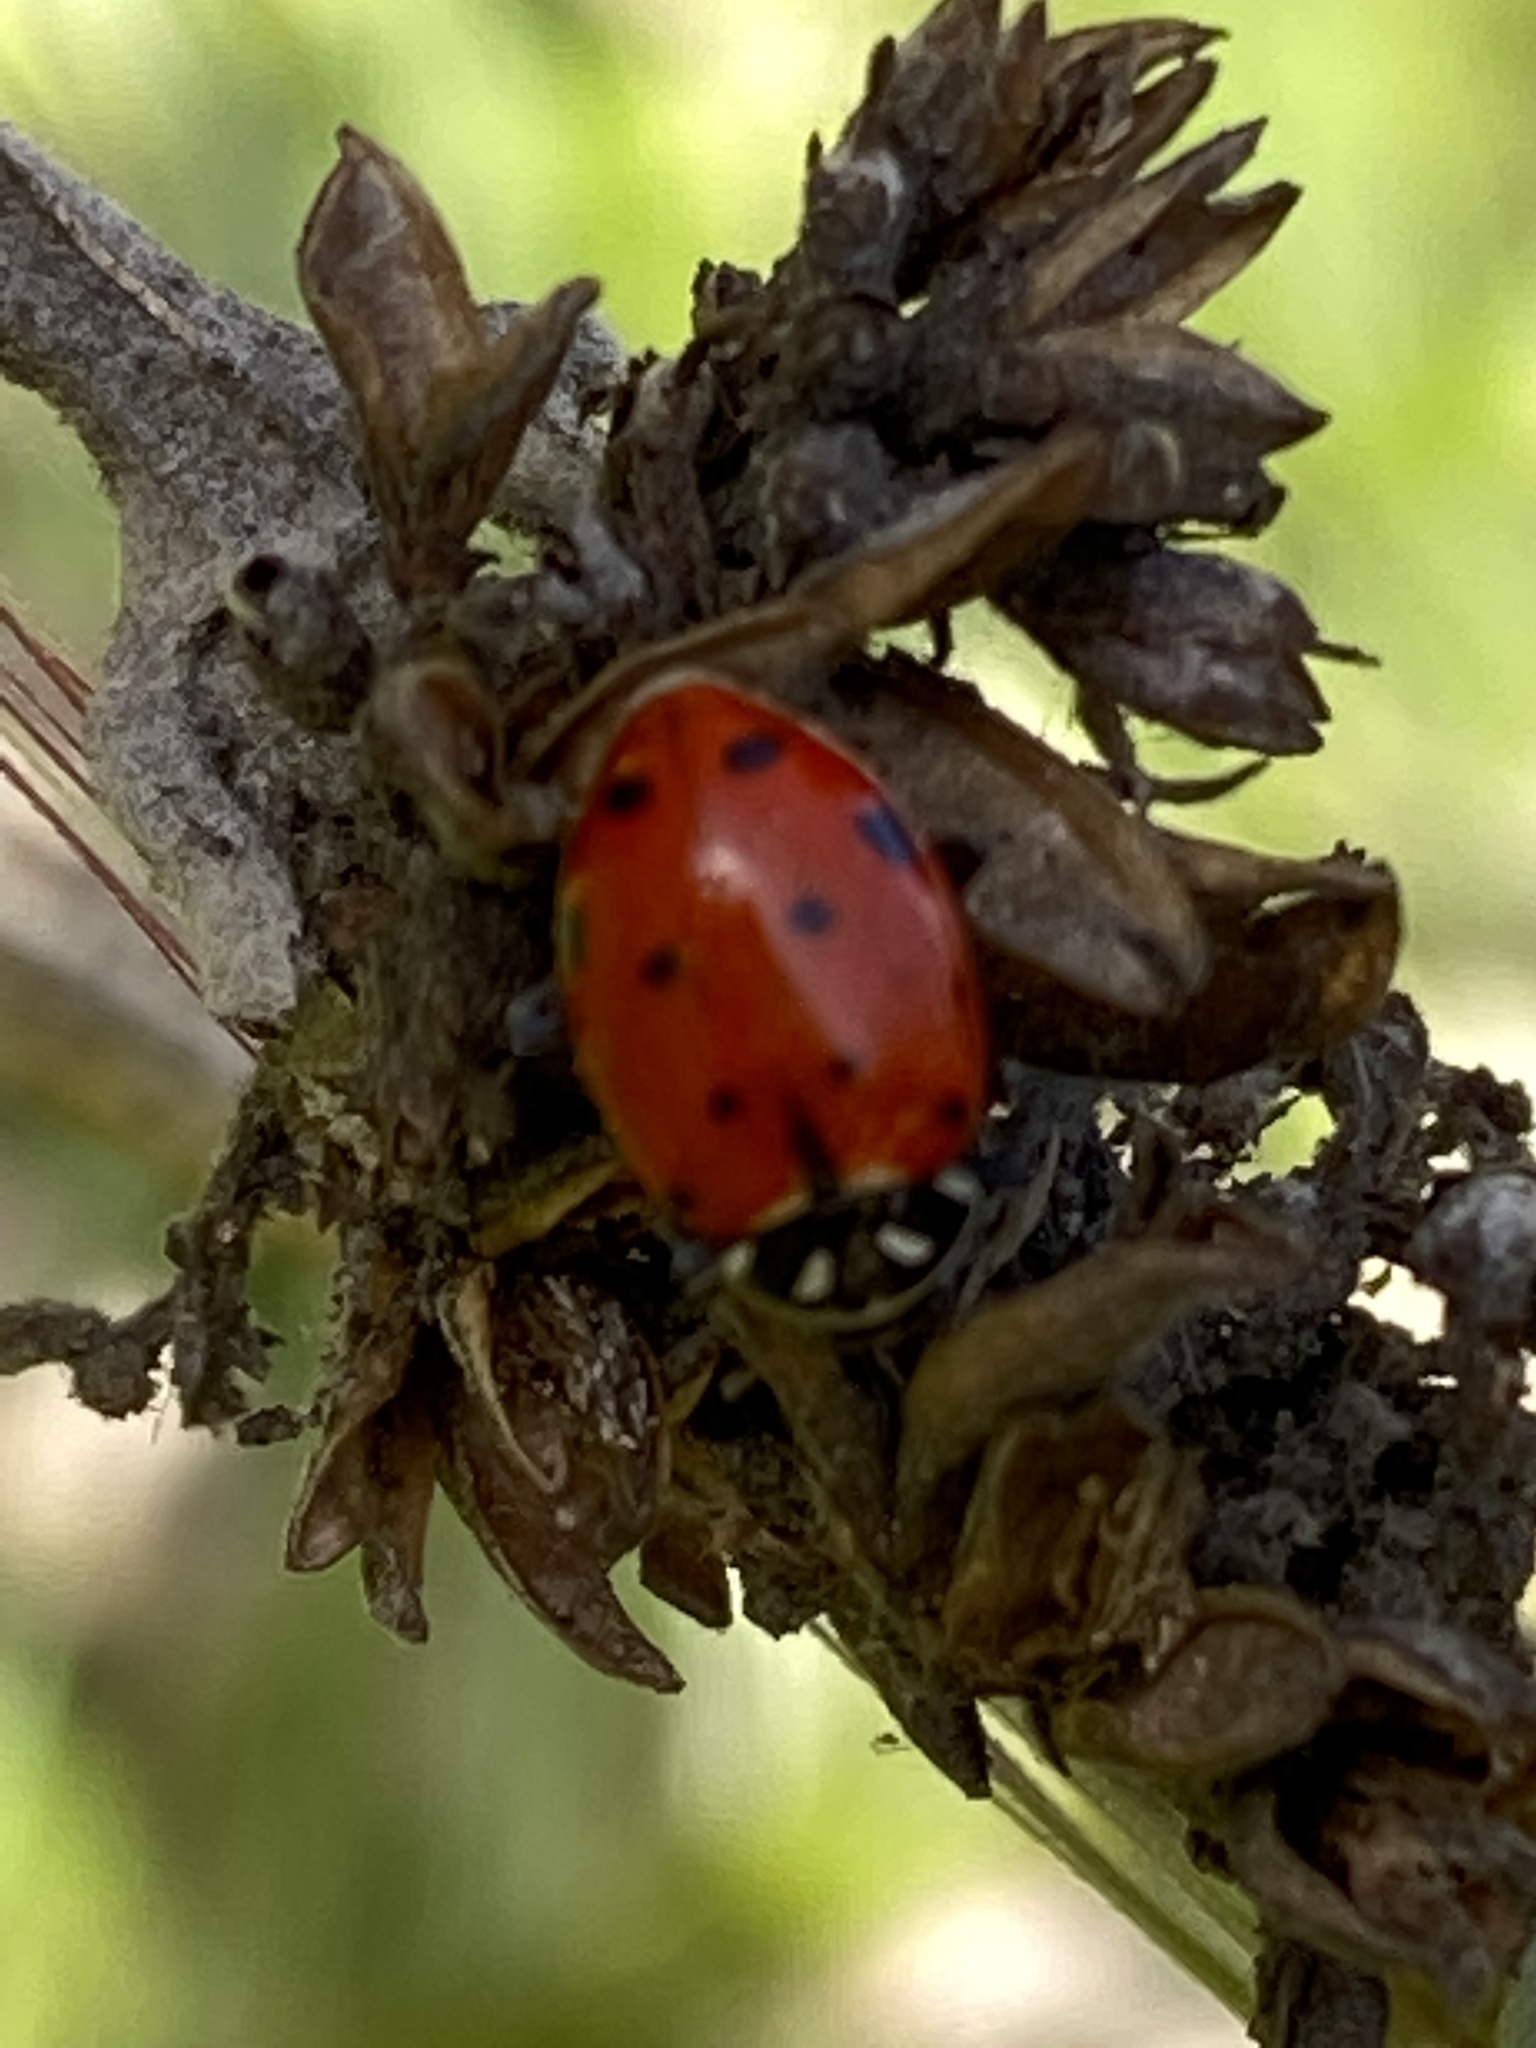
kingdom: Animalia
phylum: Arthropoda
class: Insecta
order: Coleoptera
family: Coccinellidae
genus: Hippodamia
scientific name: Hippodamia convergens
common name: Convergent lady beetle
